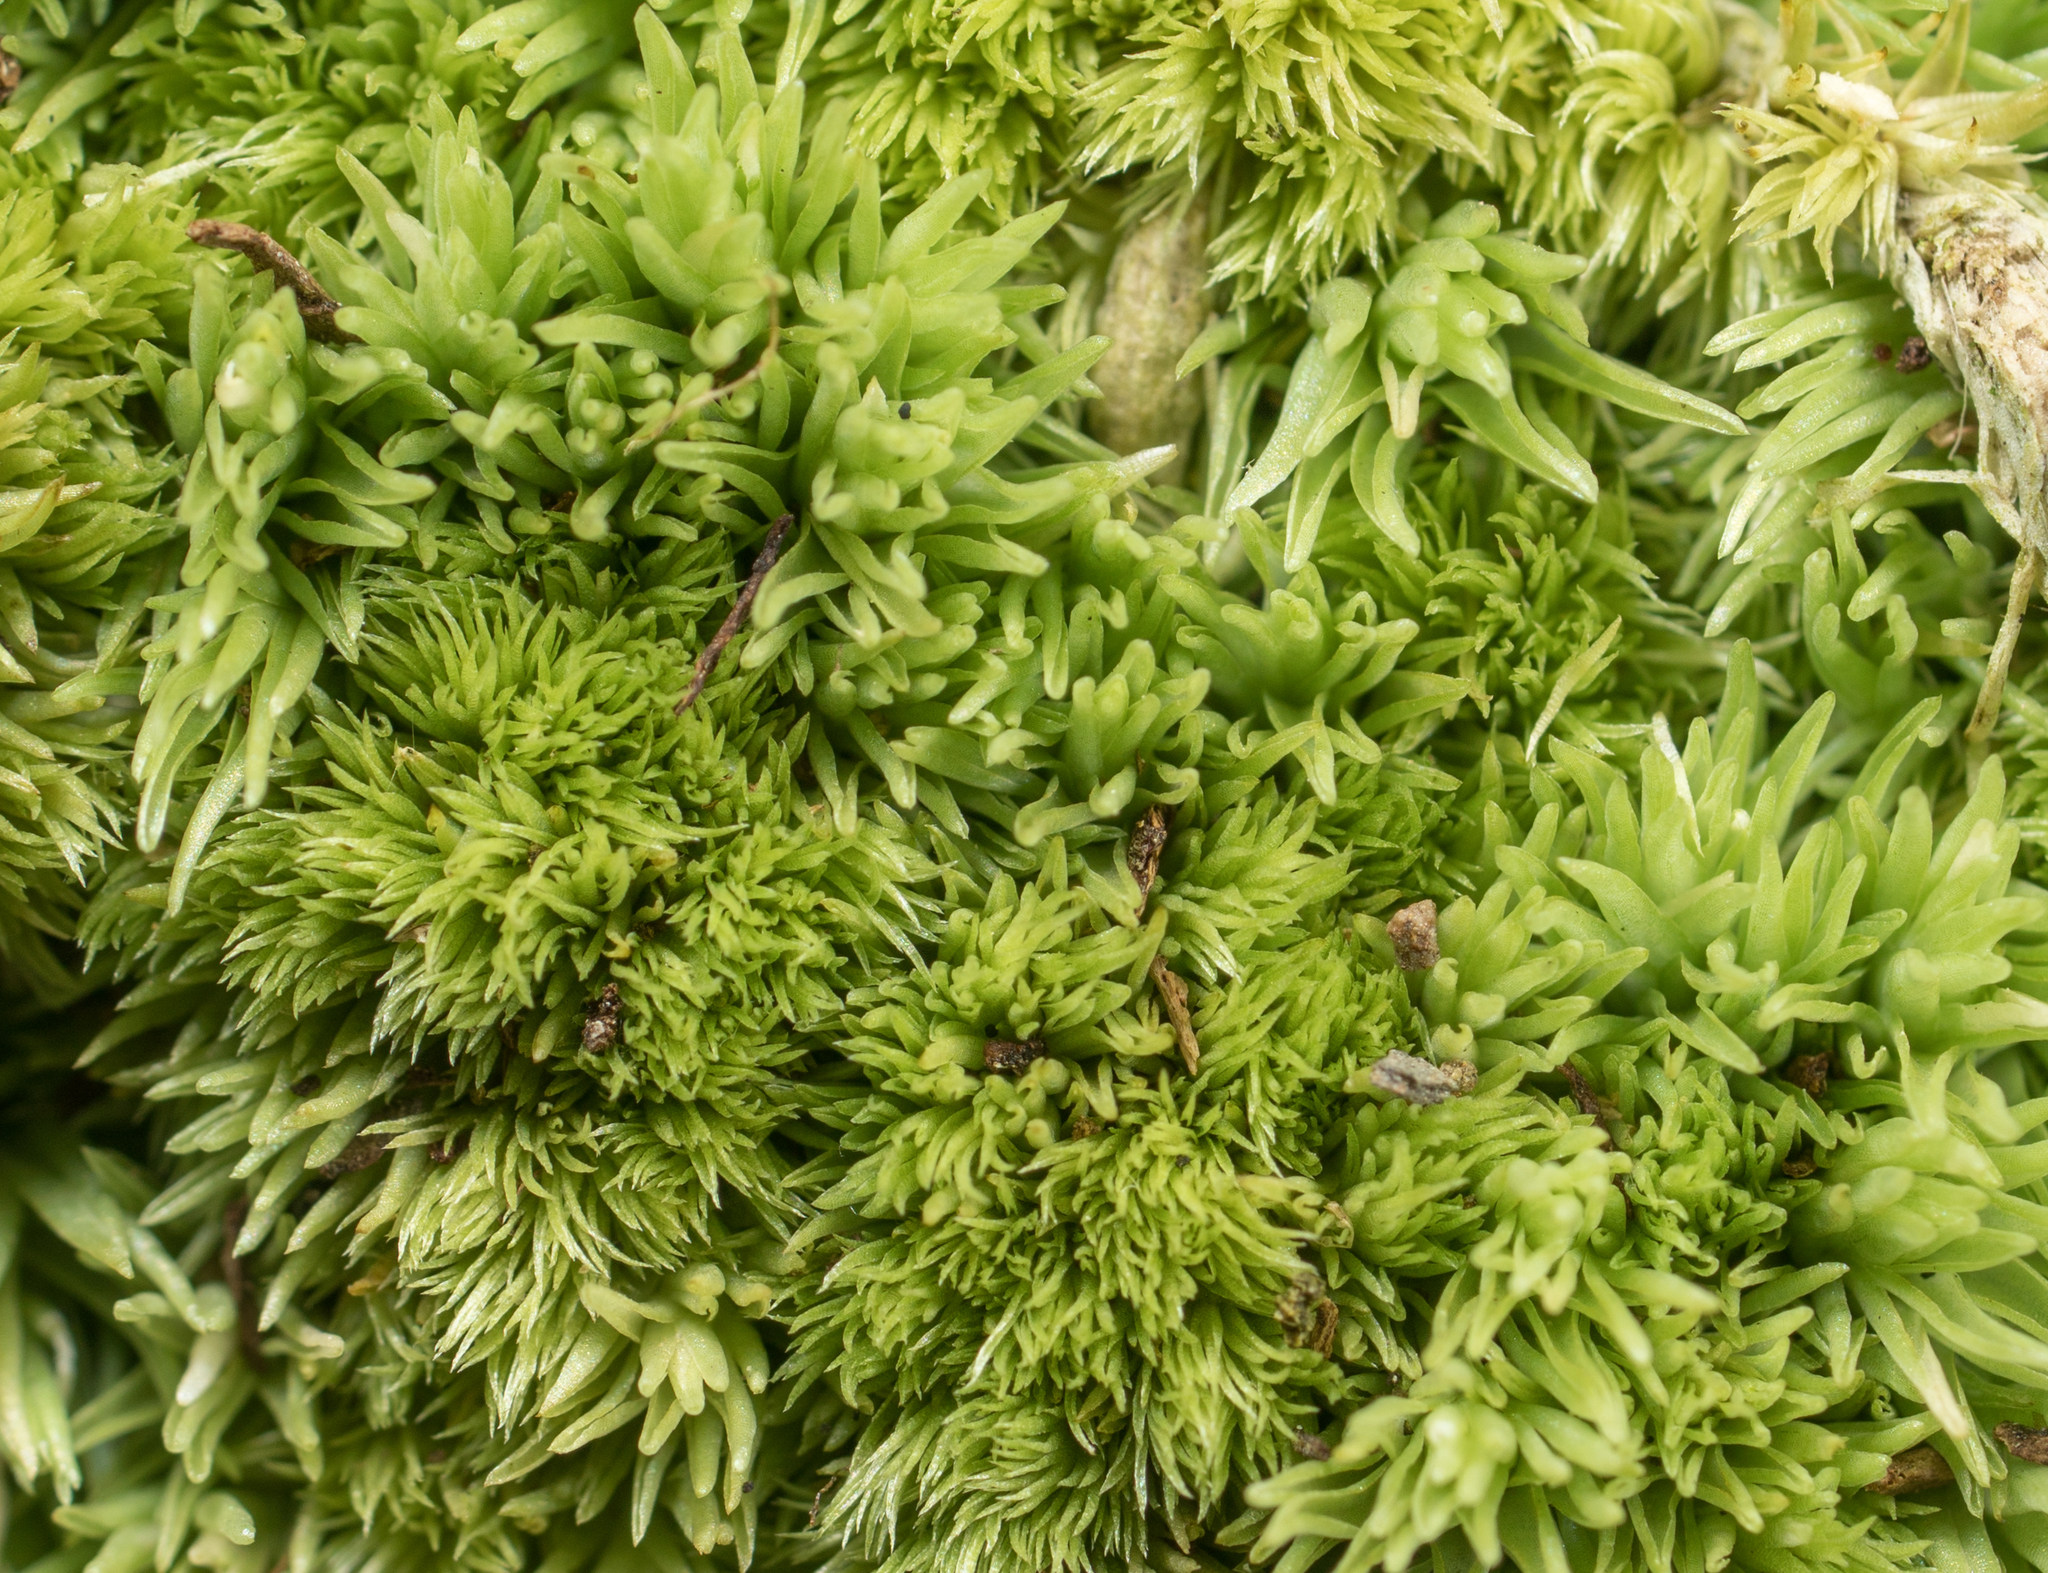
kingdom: Plantae
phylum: Bryophyta
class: Bryopsida
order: Dicranales
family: Leucobryaceae
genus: Leucobryum
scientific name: Leucobryum glaucum
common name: Large white-moss
